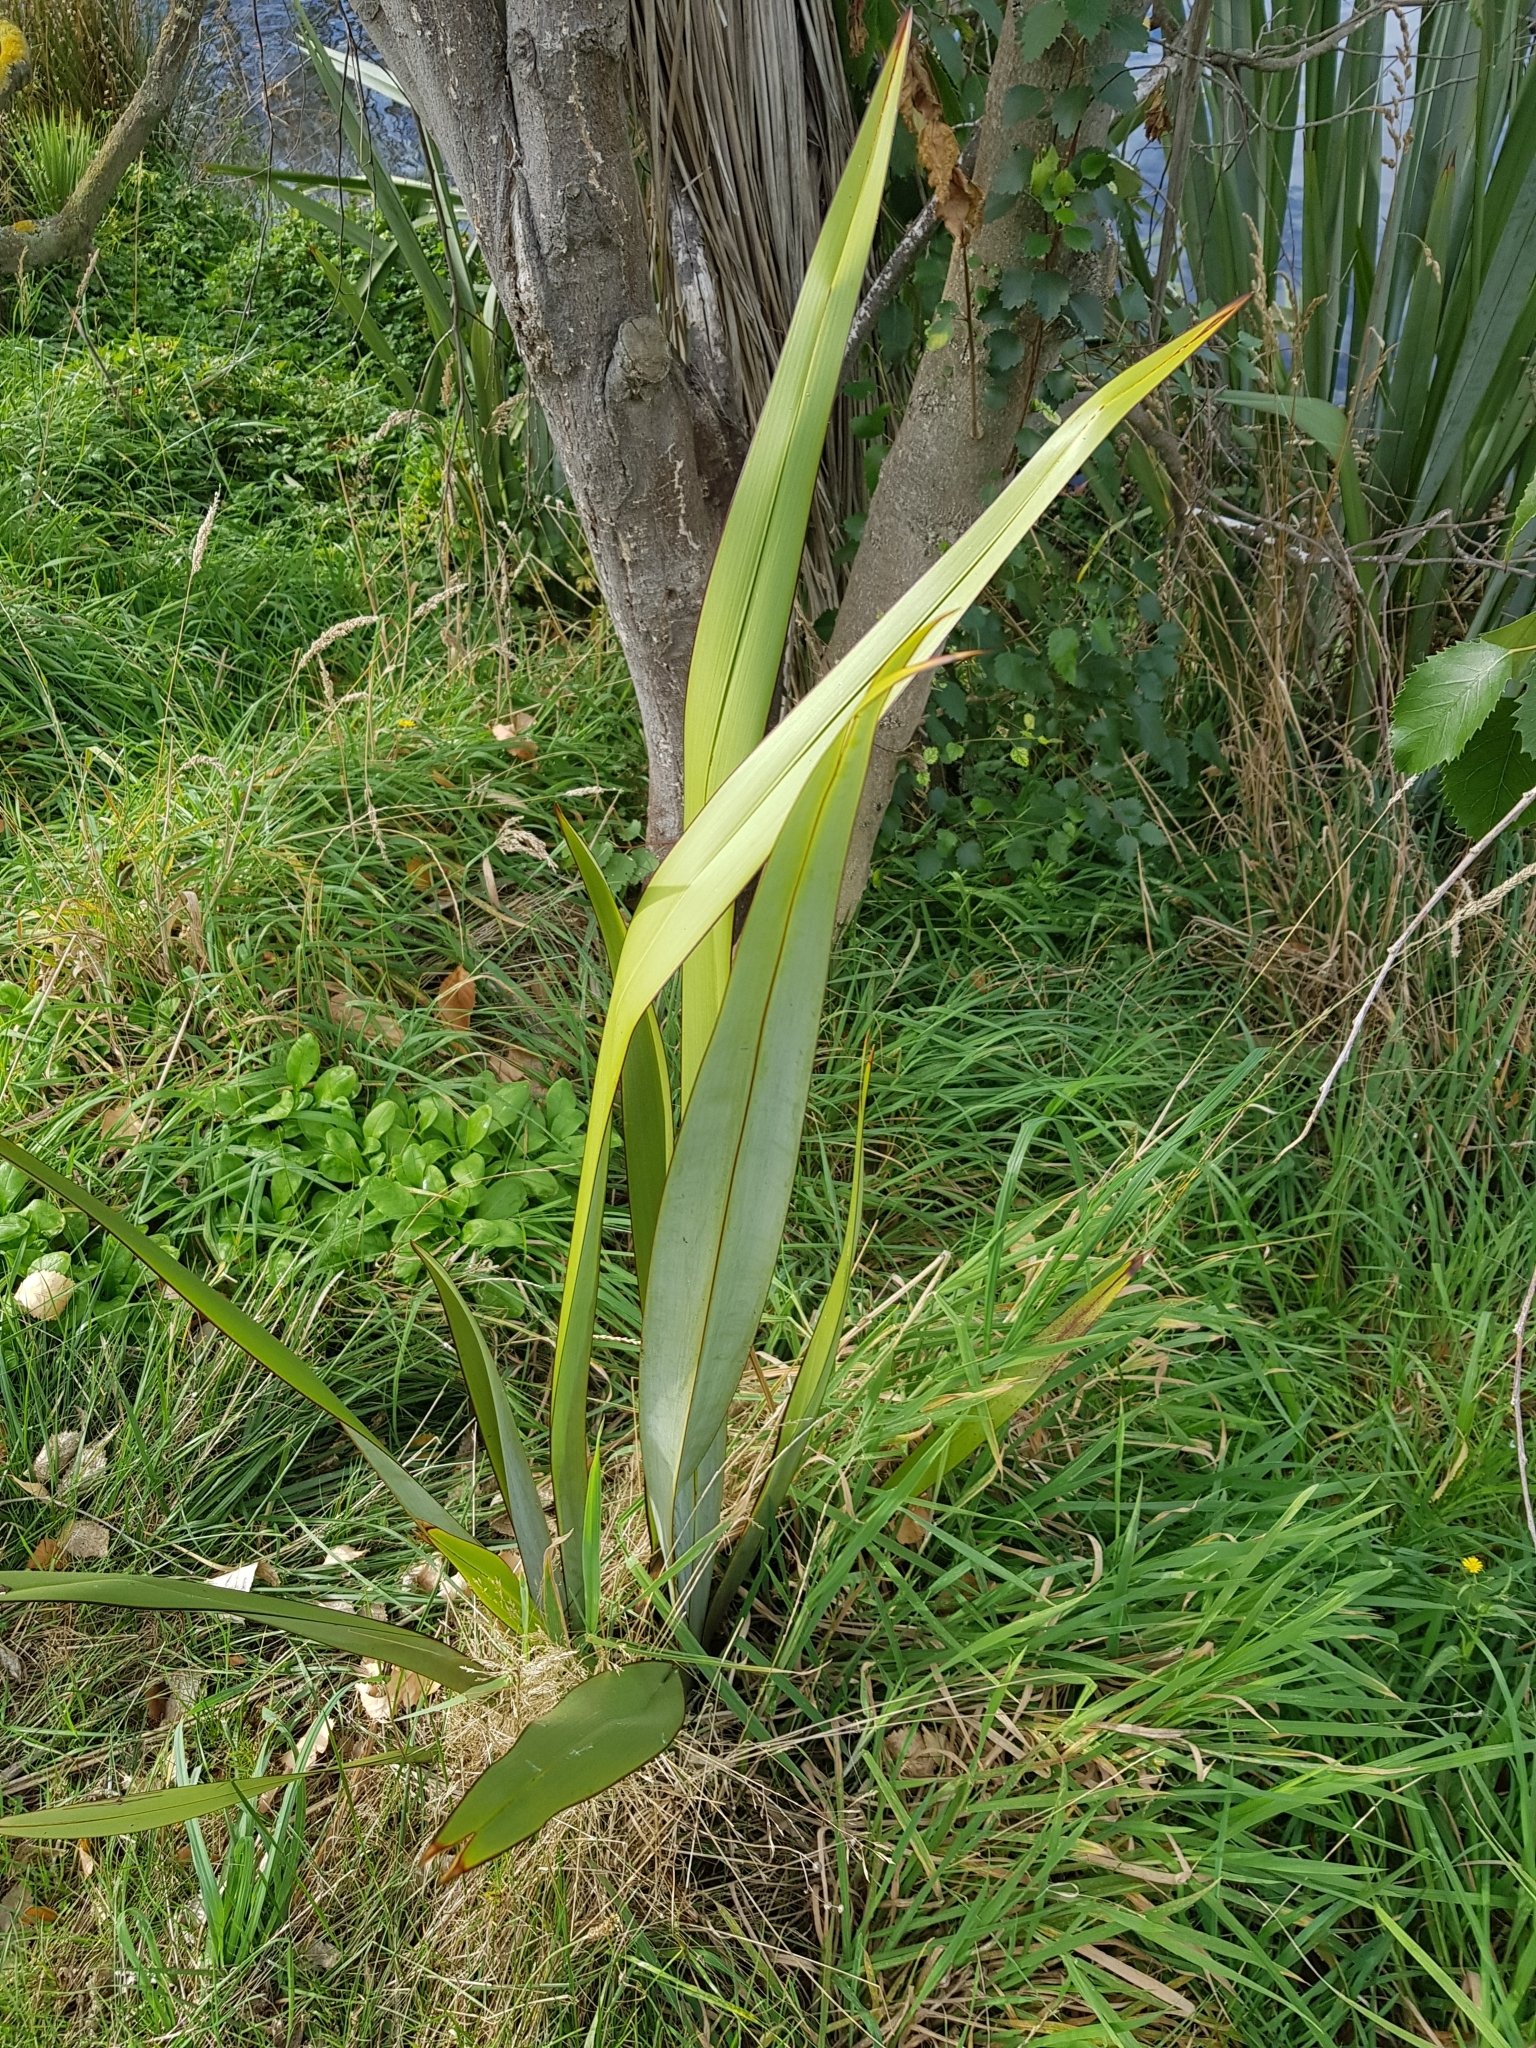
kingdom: Plantae
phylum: Tracheophyta
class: Liliopsida
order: Asparagales
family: Asphodelaceae
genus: Phormium
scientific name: Phormium tenax
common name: New zealand flax
